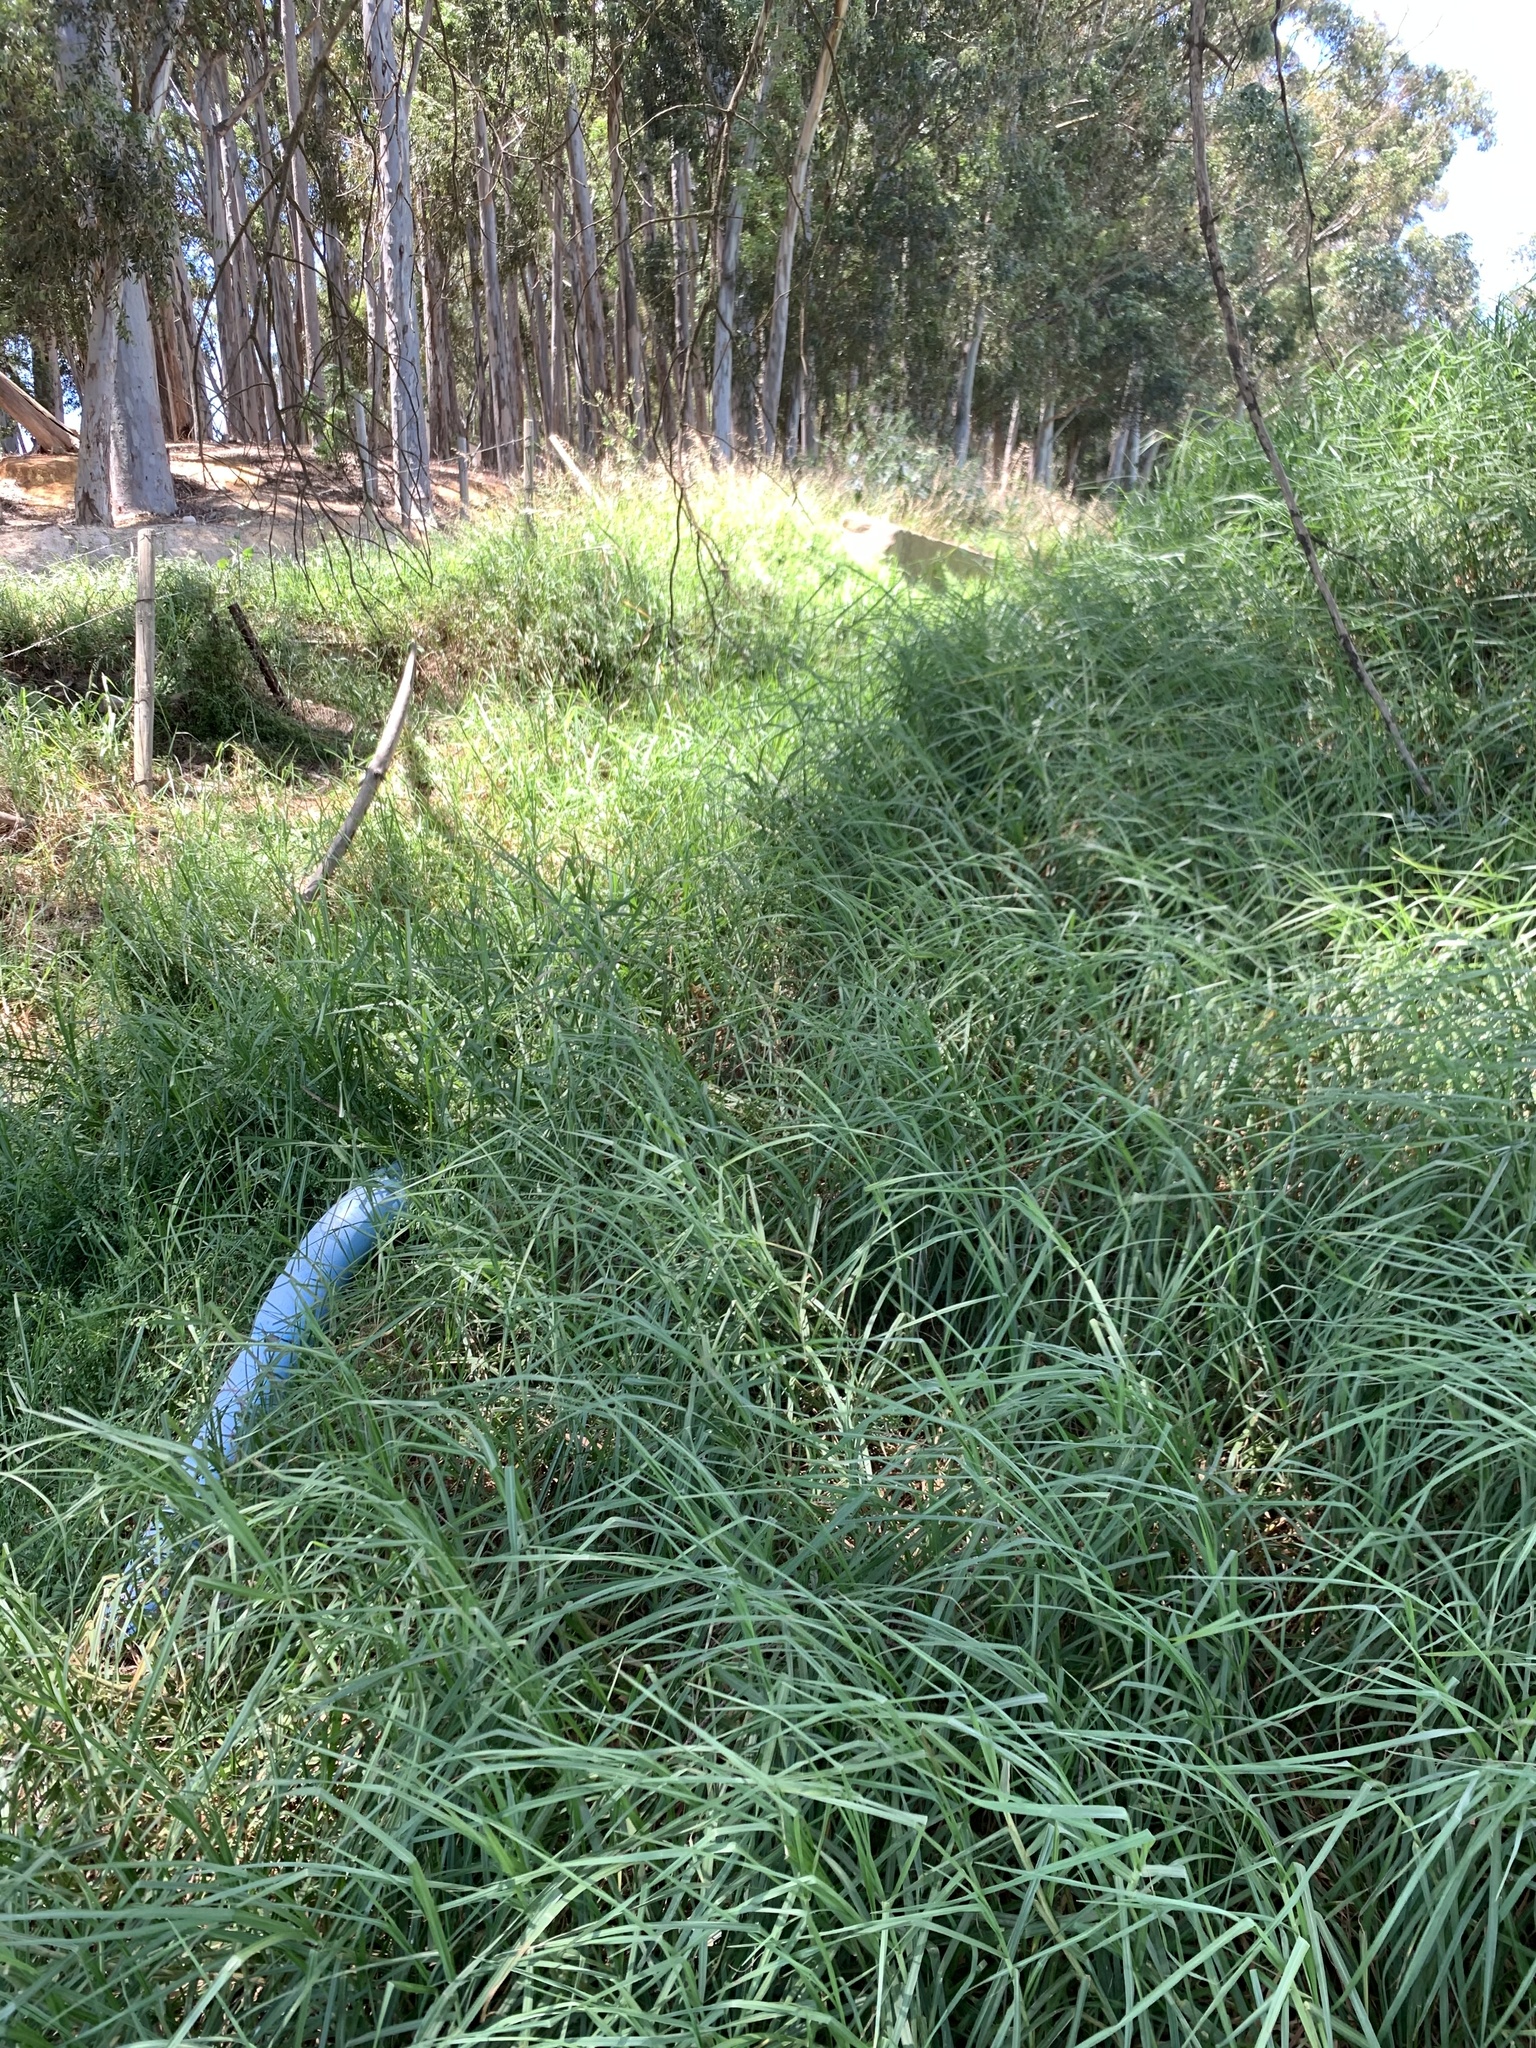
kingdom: Plantae
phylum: Tracheophyta
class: Liliopsida
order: Poales
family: Poaceae
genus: Cenchrus
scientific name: Cenchrus clandestinus
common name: Kikuyugrass
